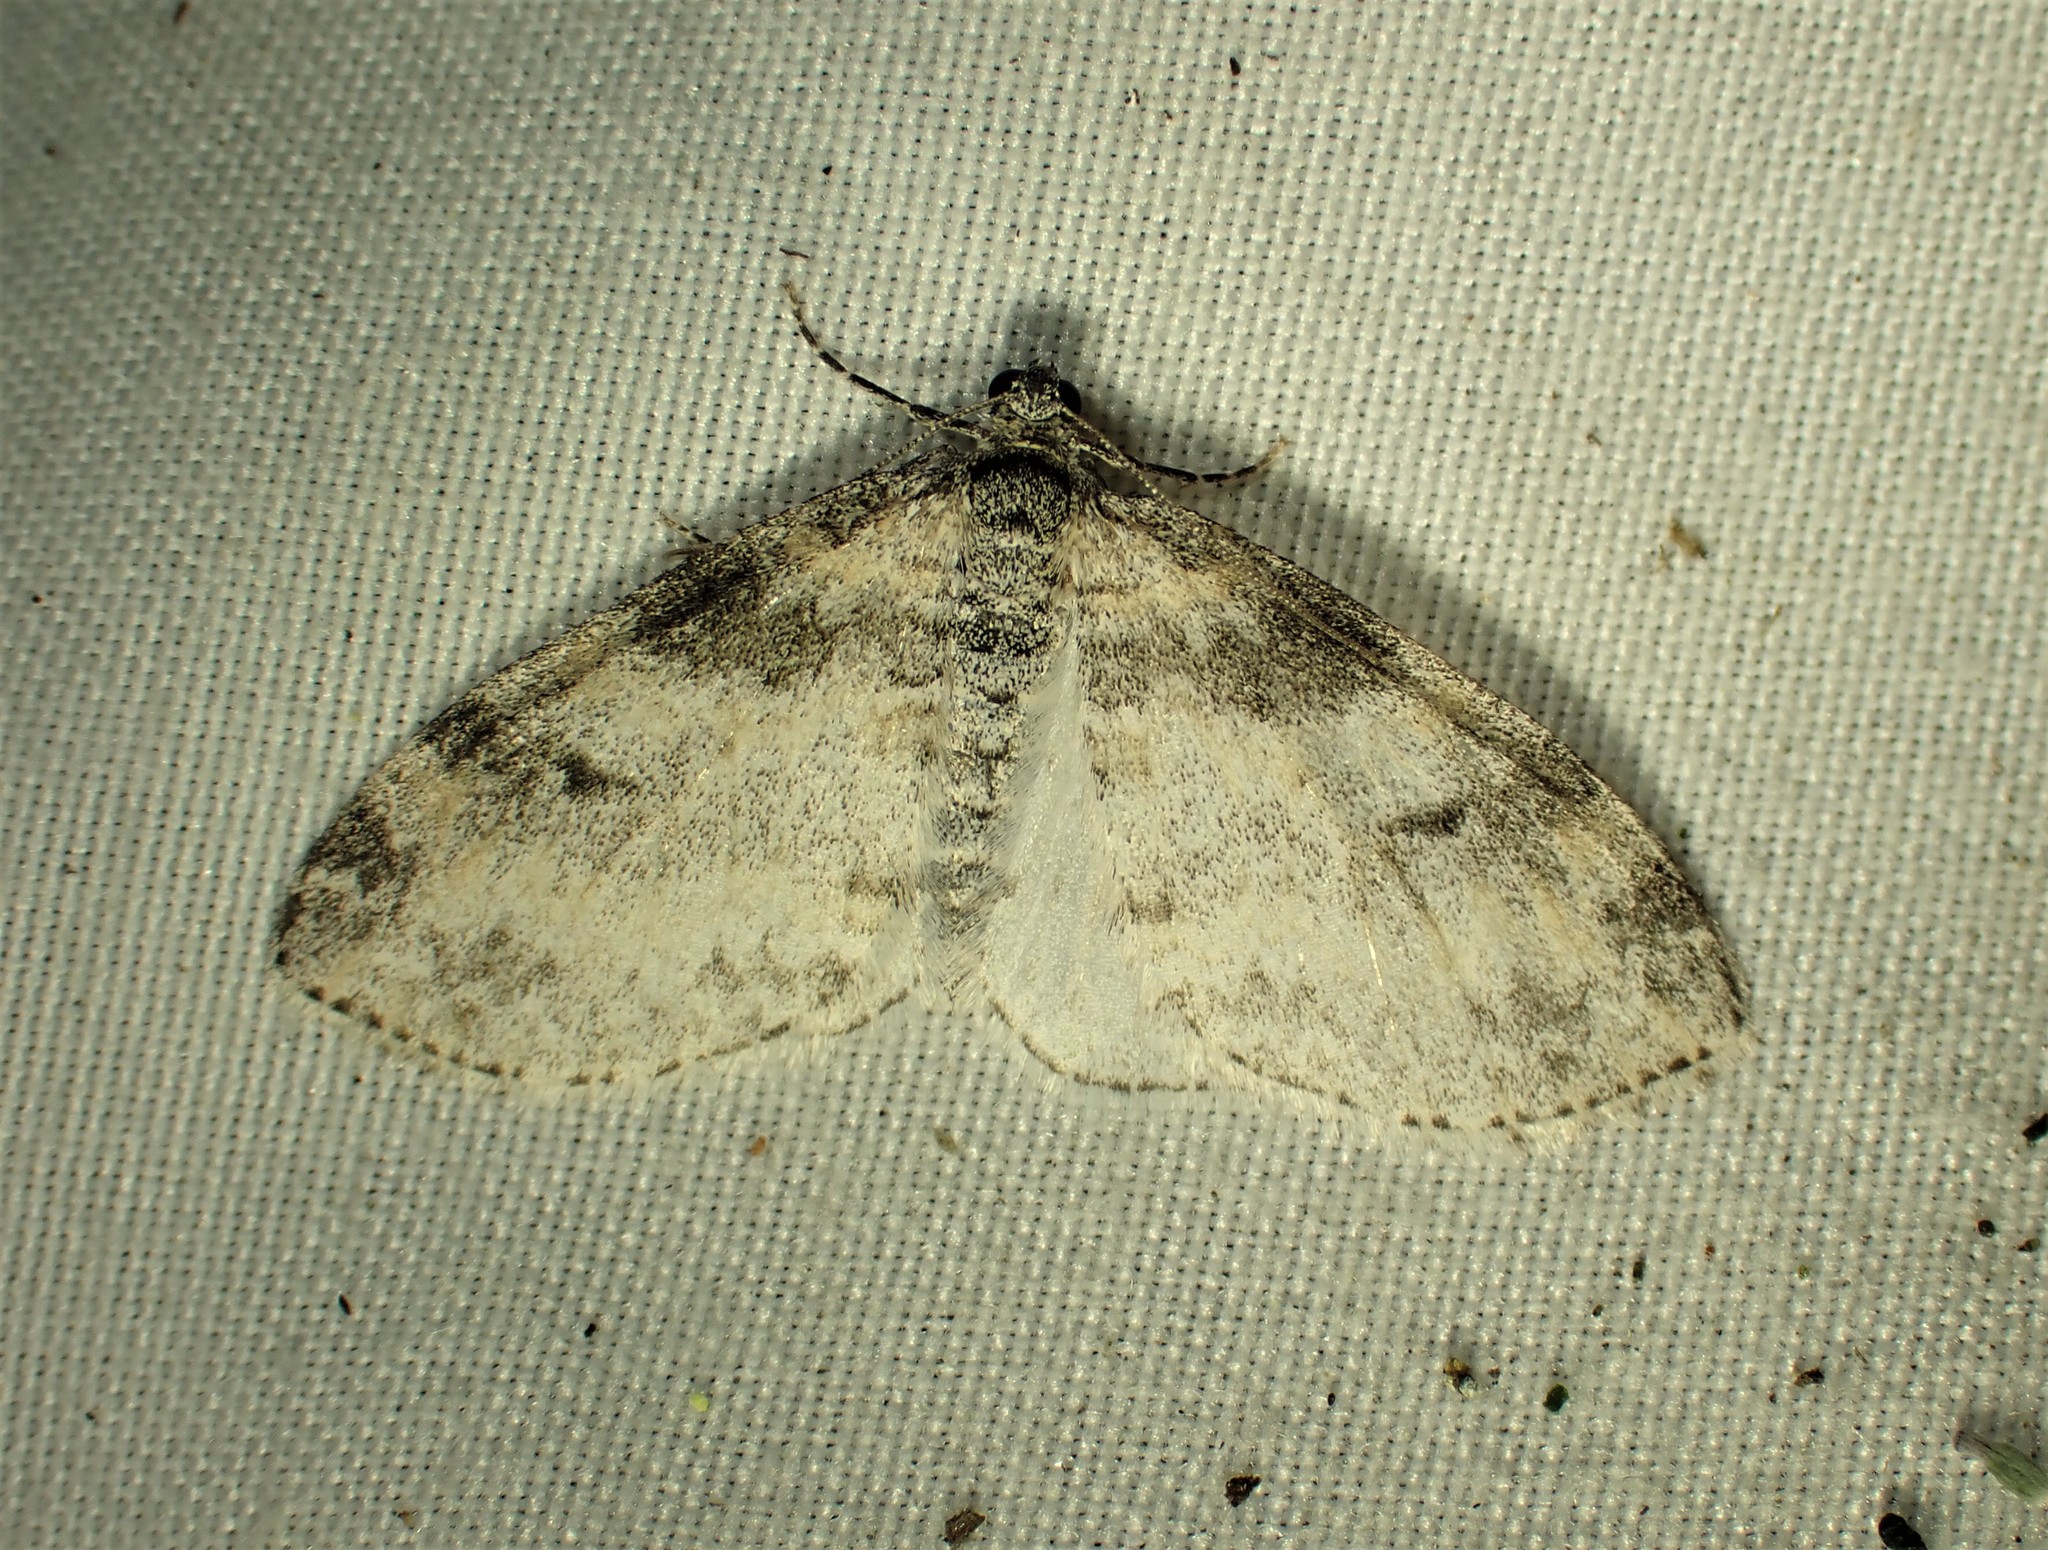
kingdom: Animalia
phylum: Arthropoda
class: Insecta
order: Lepidoptera
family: Geometridae
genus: Lobophora
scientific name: Lobophora nivigerata
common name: Powdered bigwing
